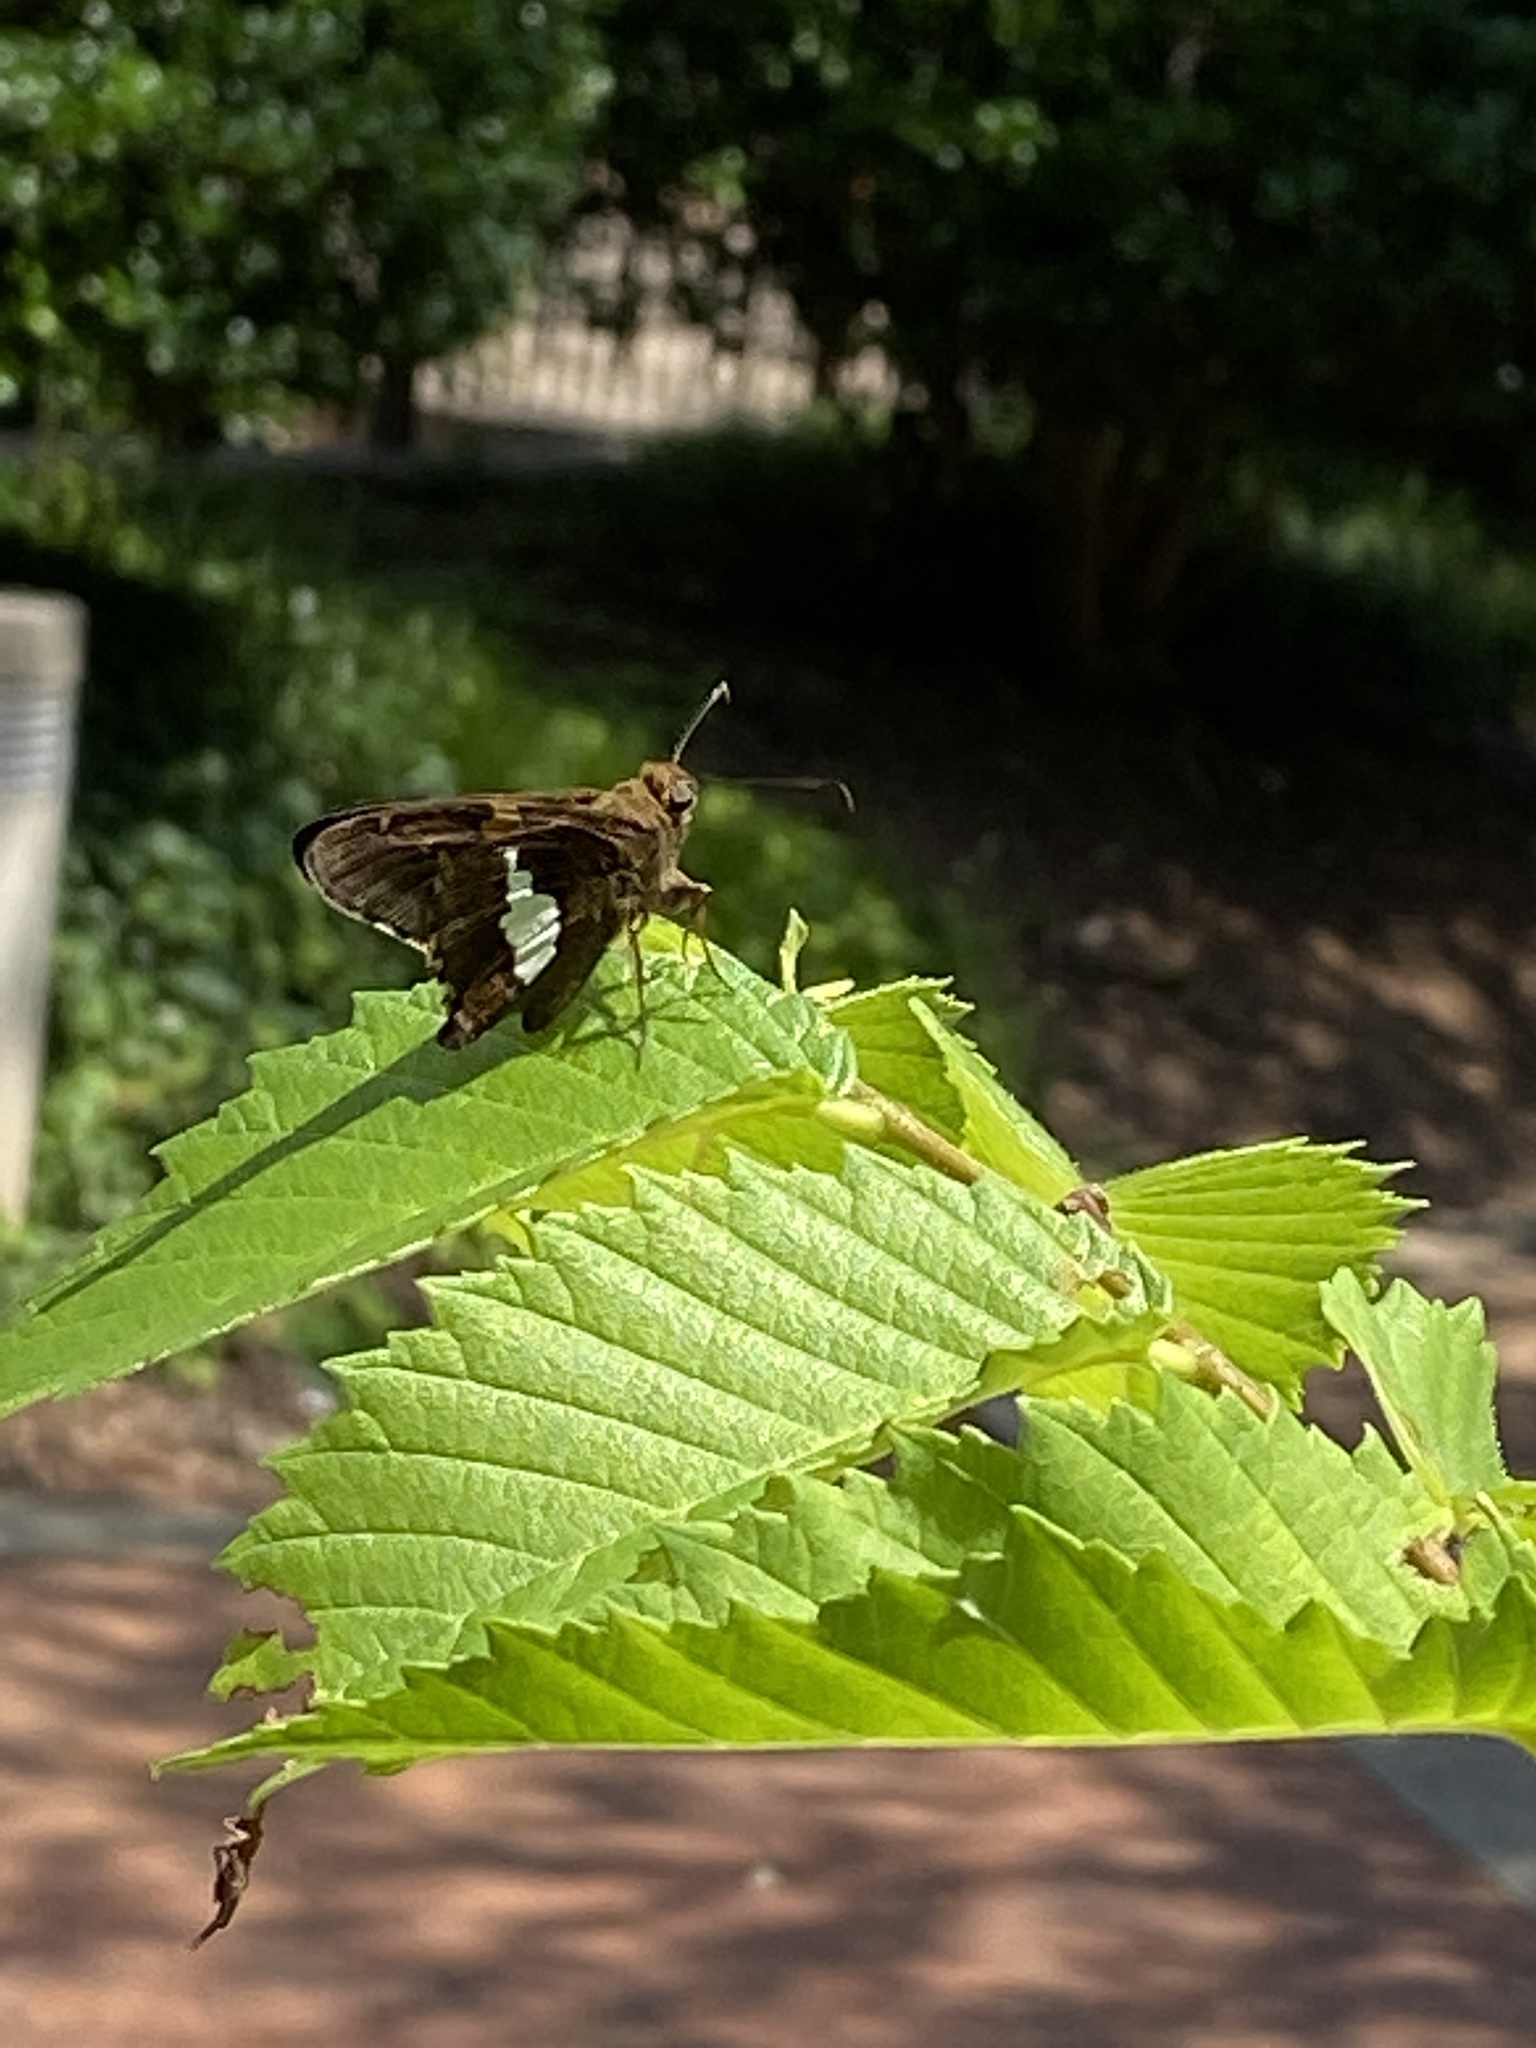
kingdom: Animalia
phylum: Arthropoda
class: Insecta
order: Lepidoptera
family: Hesperiidae
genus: Epargyreus
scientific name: Epargyreus clarus
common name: Silver-spotted skipper
